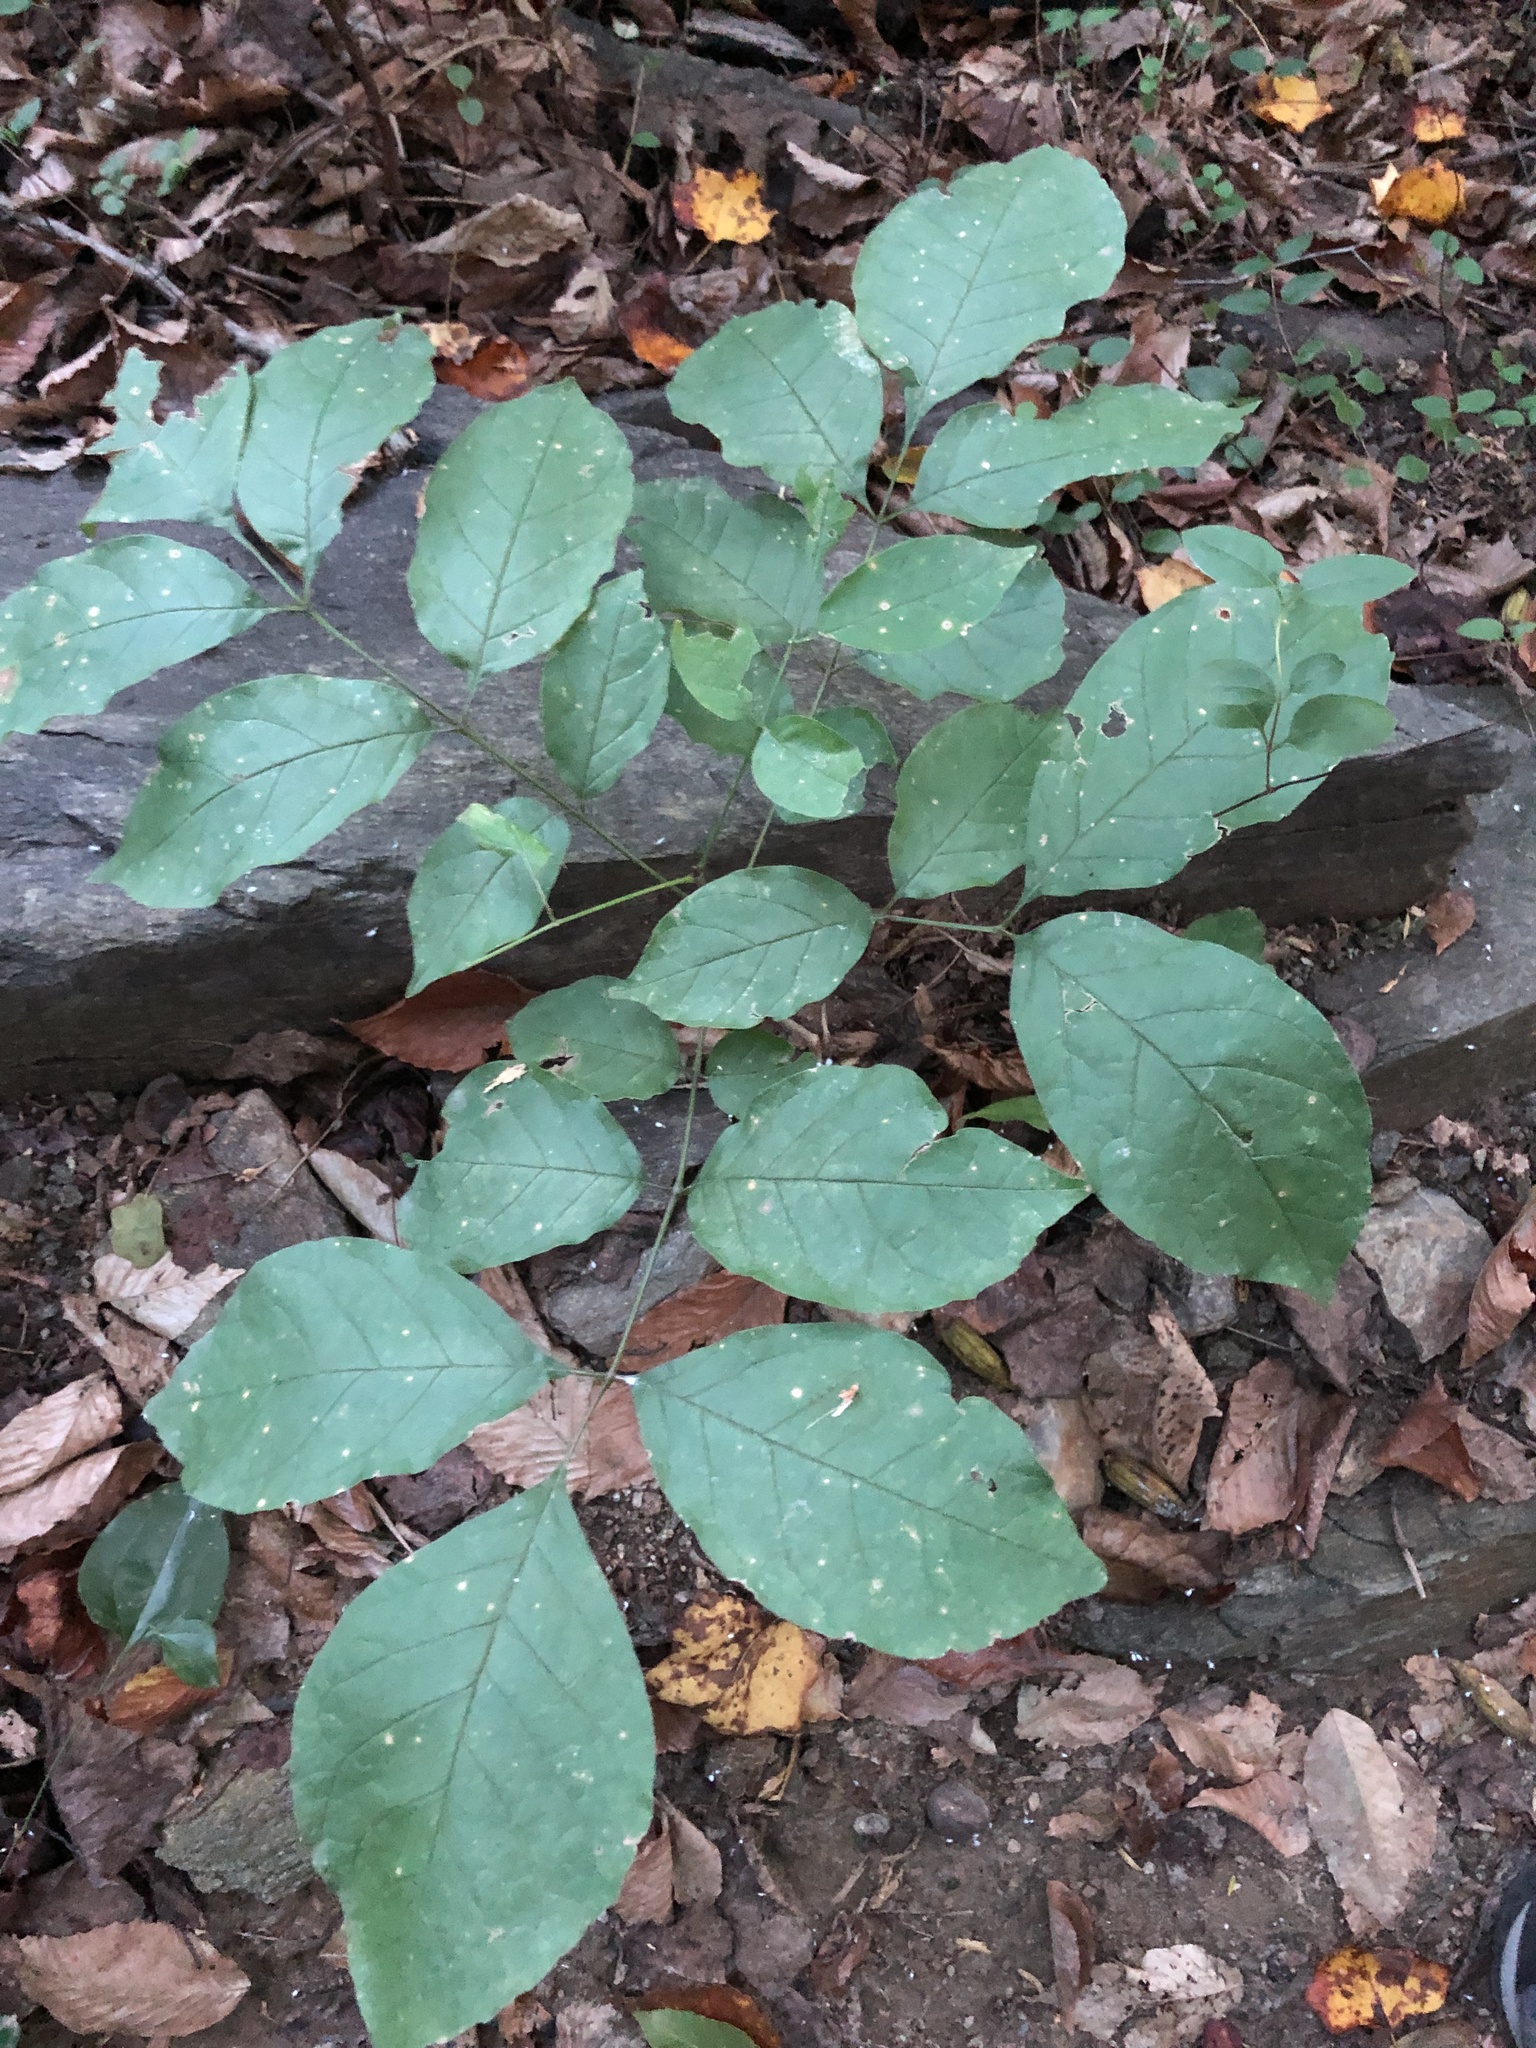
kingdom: Animalia
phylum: Arthropoda
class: Insecta
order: Hemiptera
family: Aphididae
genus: Grylloprociphilus
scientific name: Grylloprociphilus imbricator
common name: Beech blight aphid
